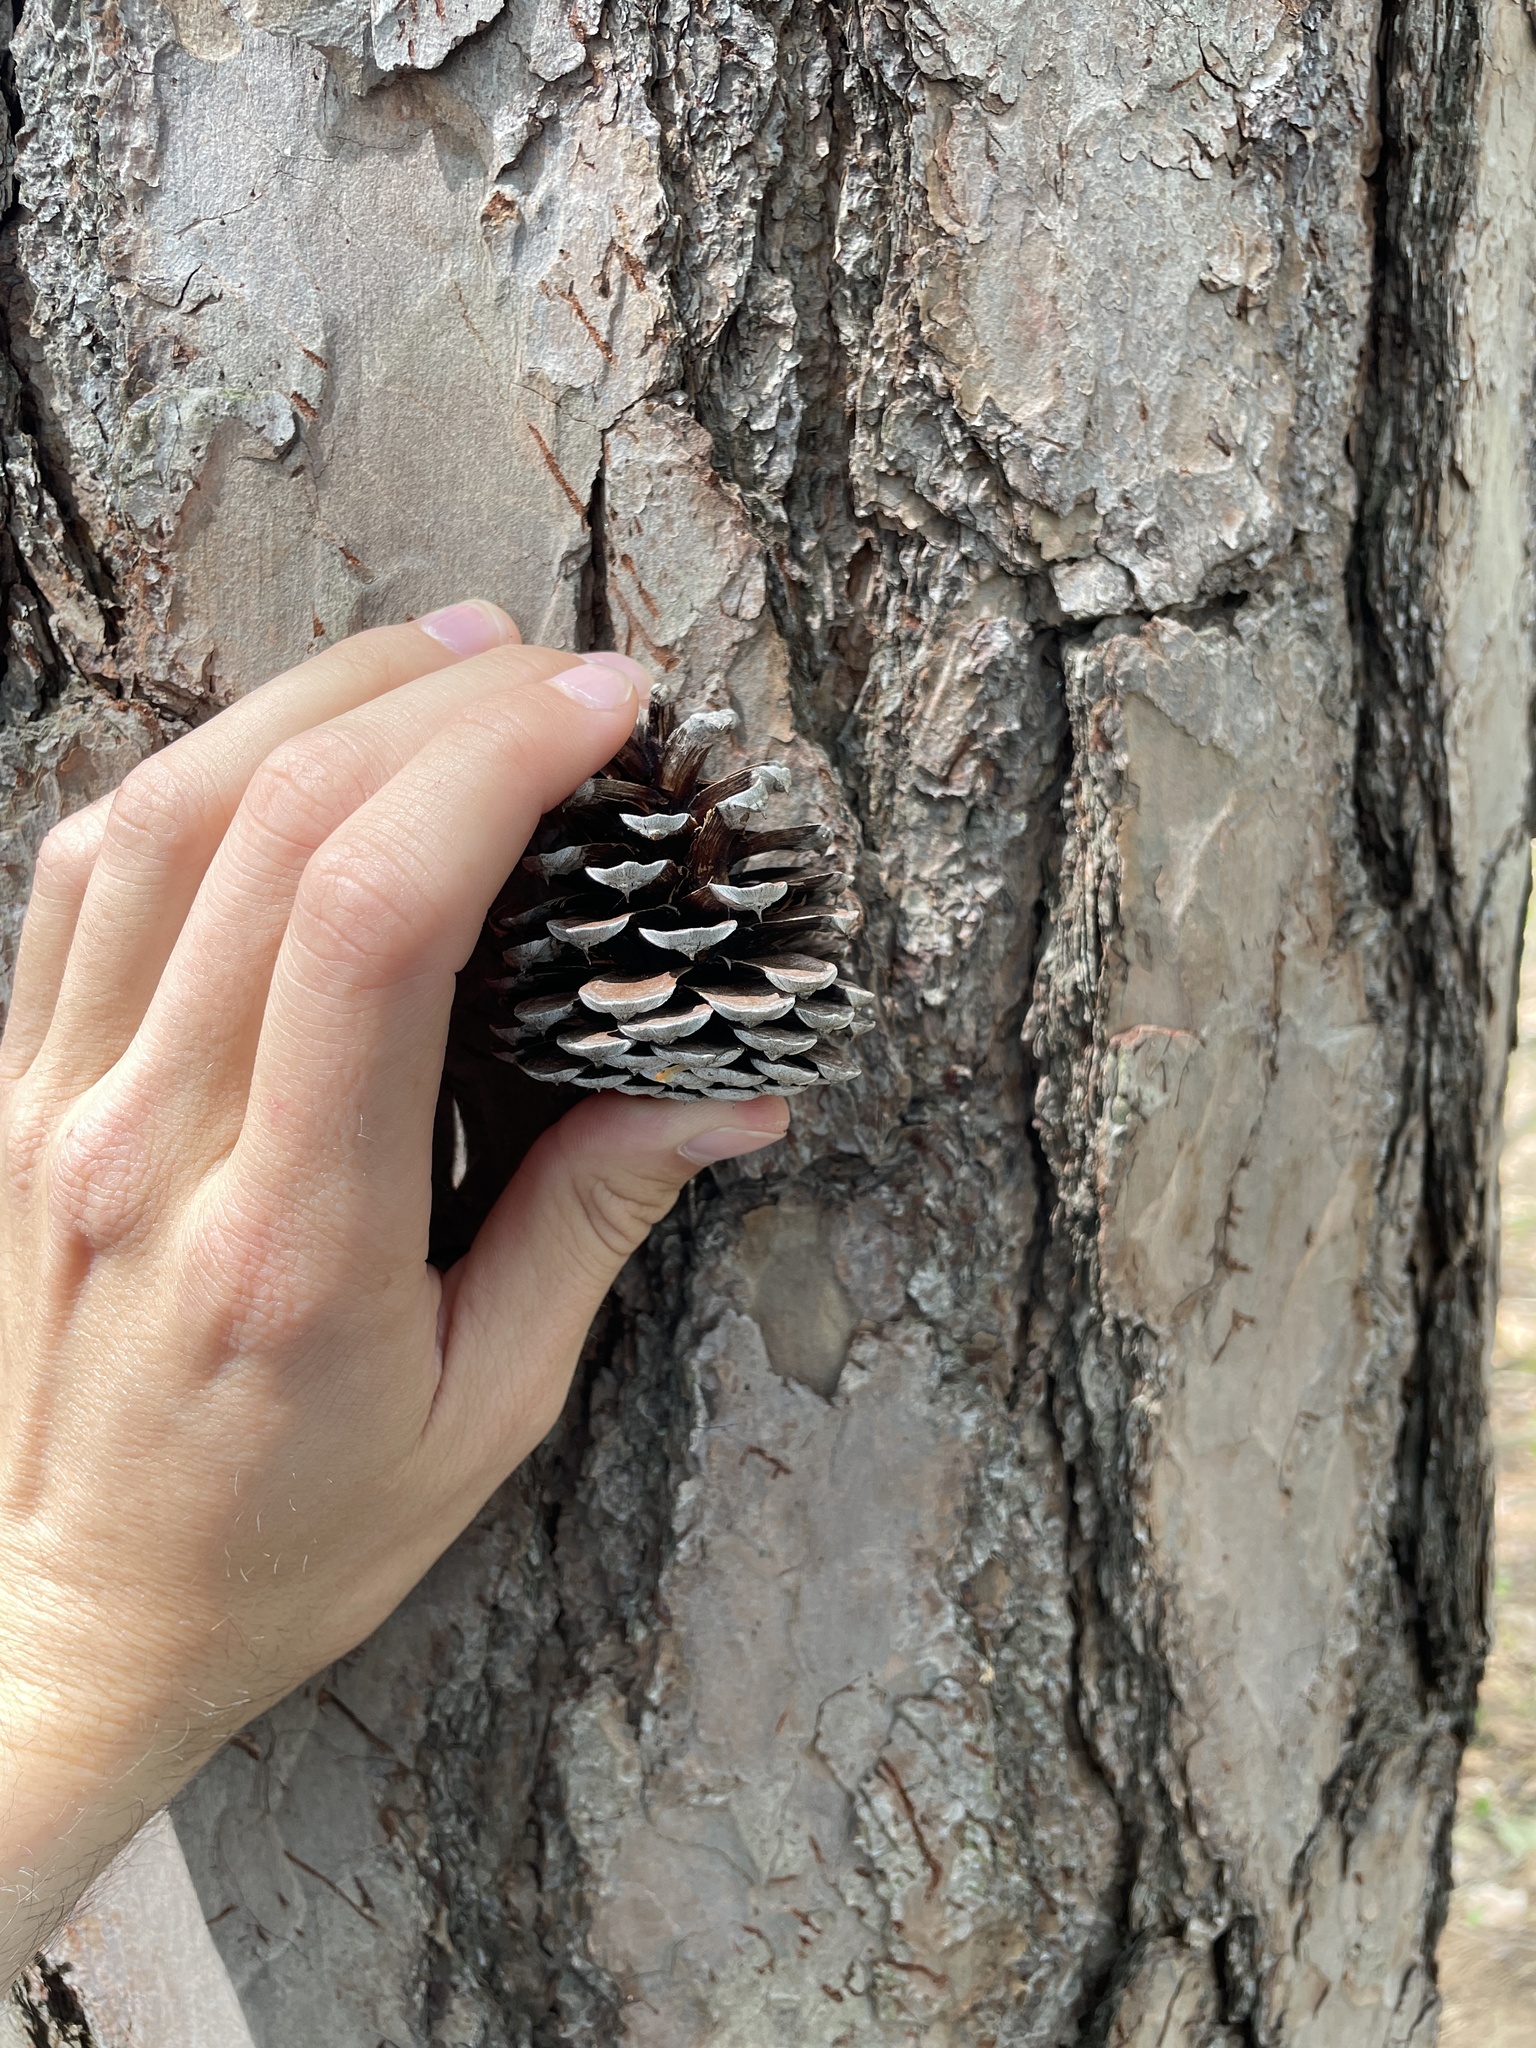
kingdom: Plantae
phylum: Tracheophyta
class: Pinopsida
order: Pinales
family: Pinaceae
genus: Pinus
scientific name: Pinus rigida
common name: Pitch pine
